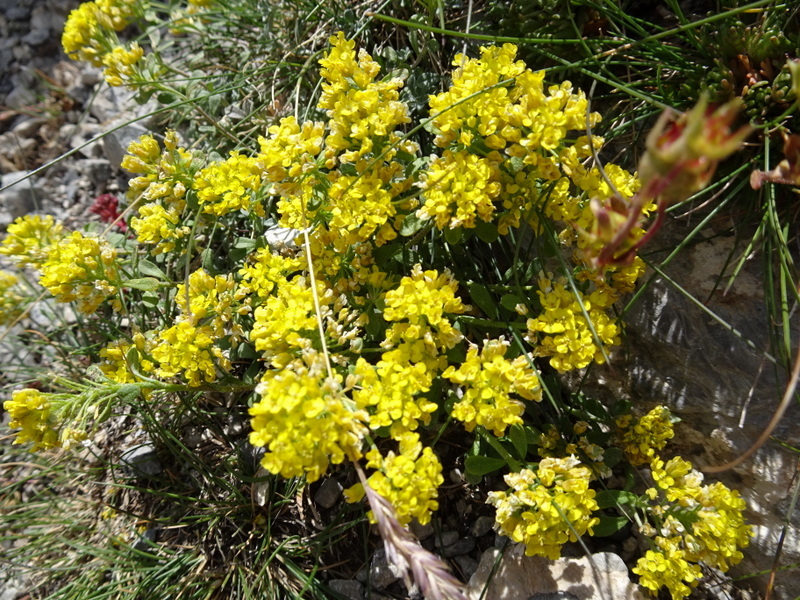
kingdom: Plantae
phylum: Tracheophyta
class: Magnoliopsida
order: Brassicales
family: Brassicaceae
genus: Odontarrhena
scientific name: Odontarrhena alpestris
